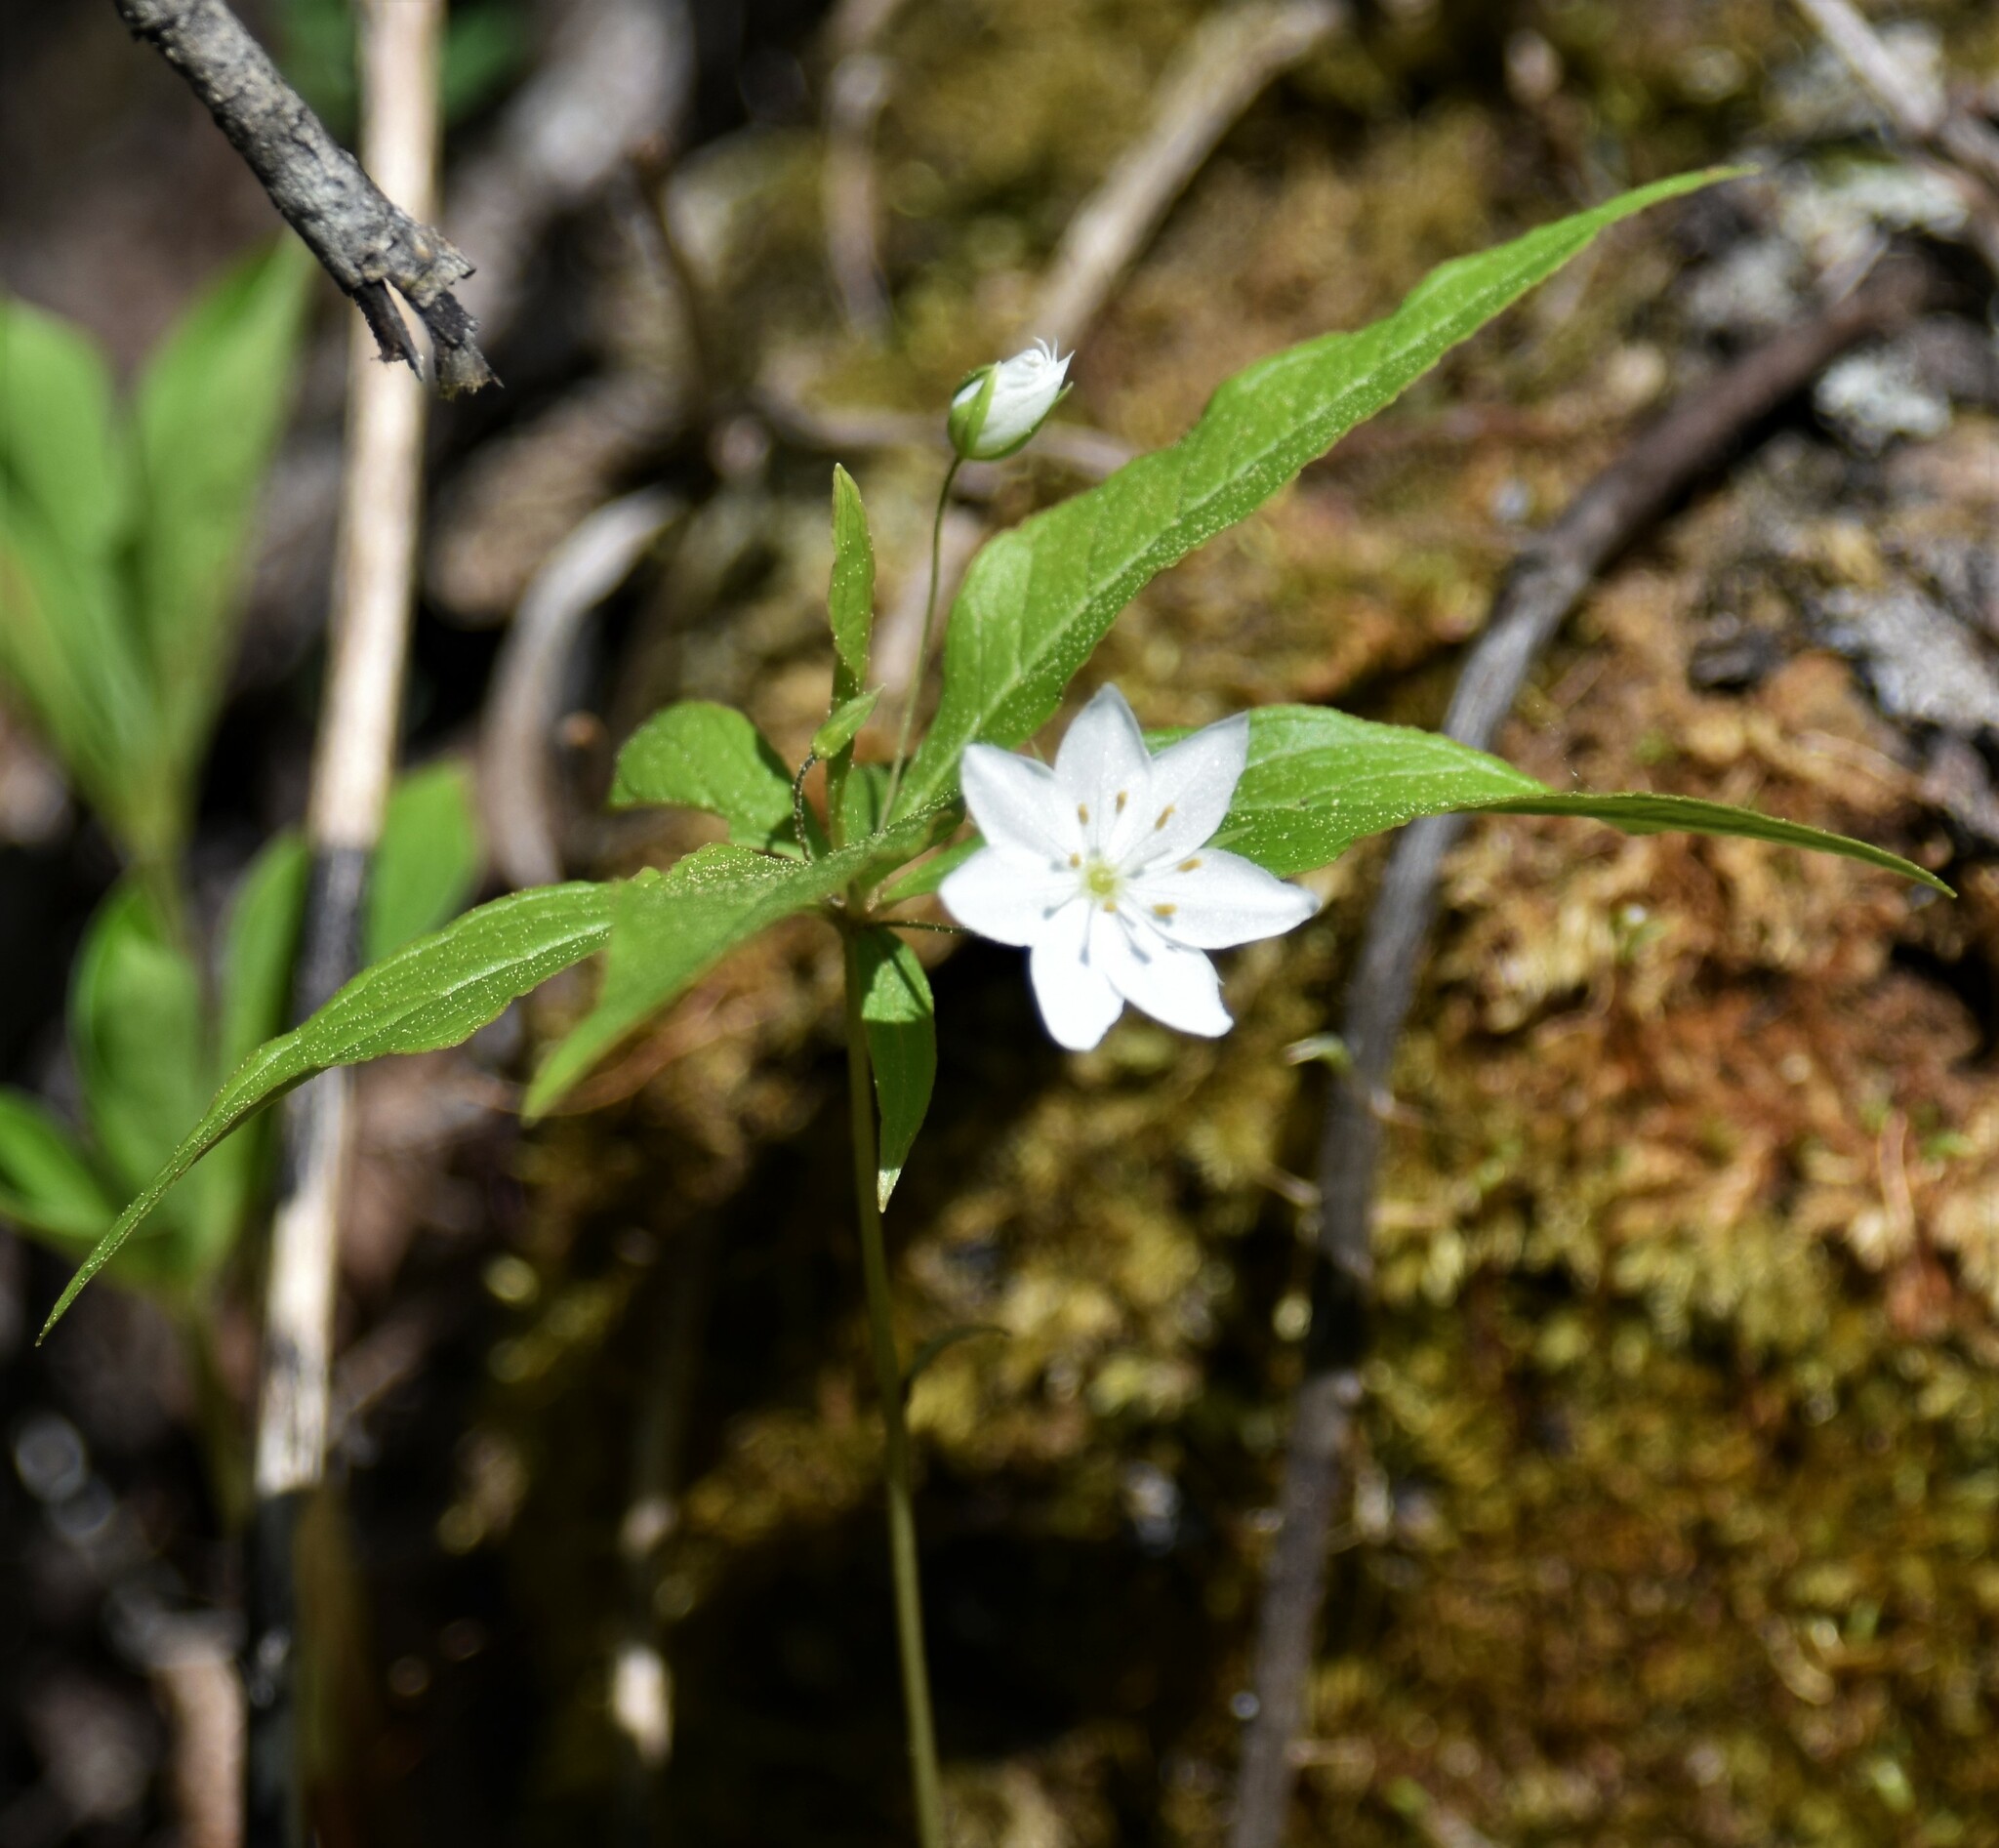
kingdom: Plantae
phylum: Tracheophyta
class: Magnoliopsida
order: Ericales
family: Primulaceae
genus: Lysimachia
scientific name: Lysimachia borealis
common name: American starflower
